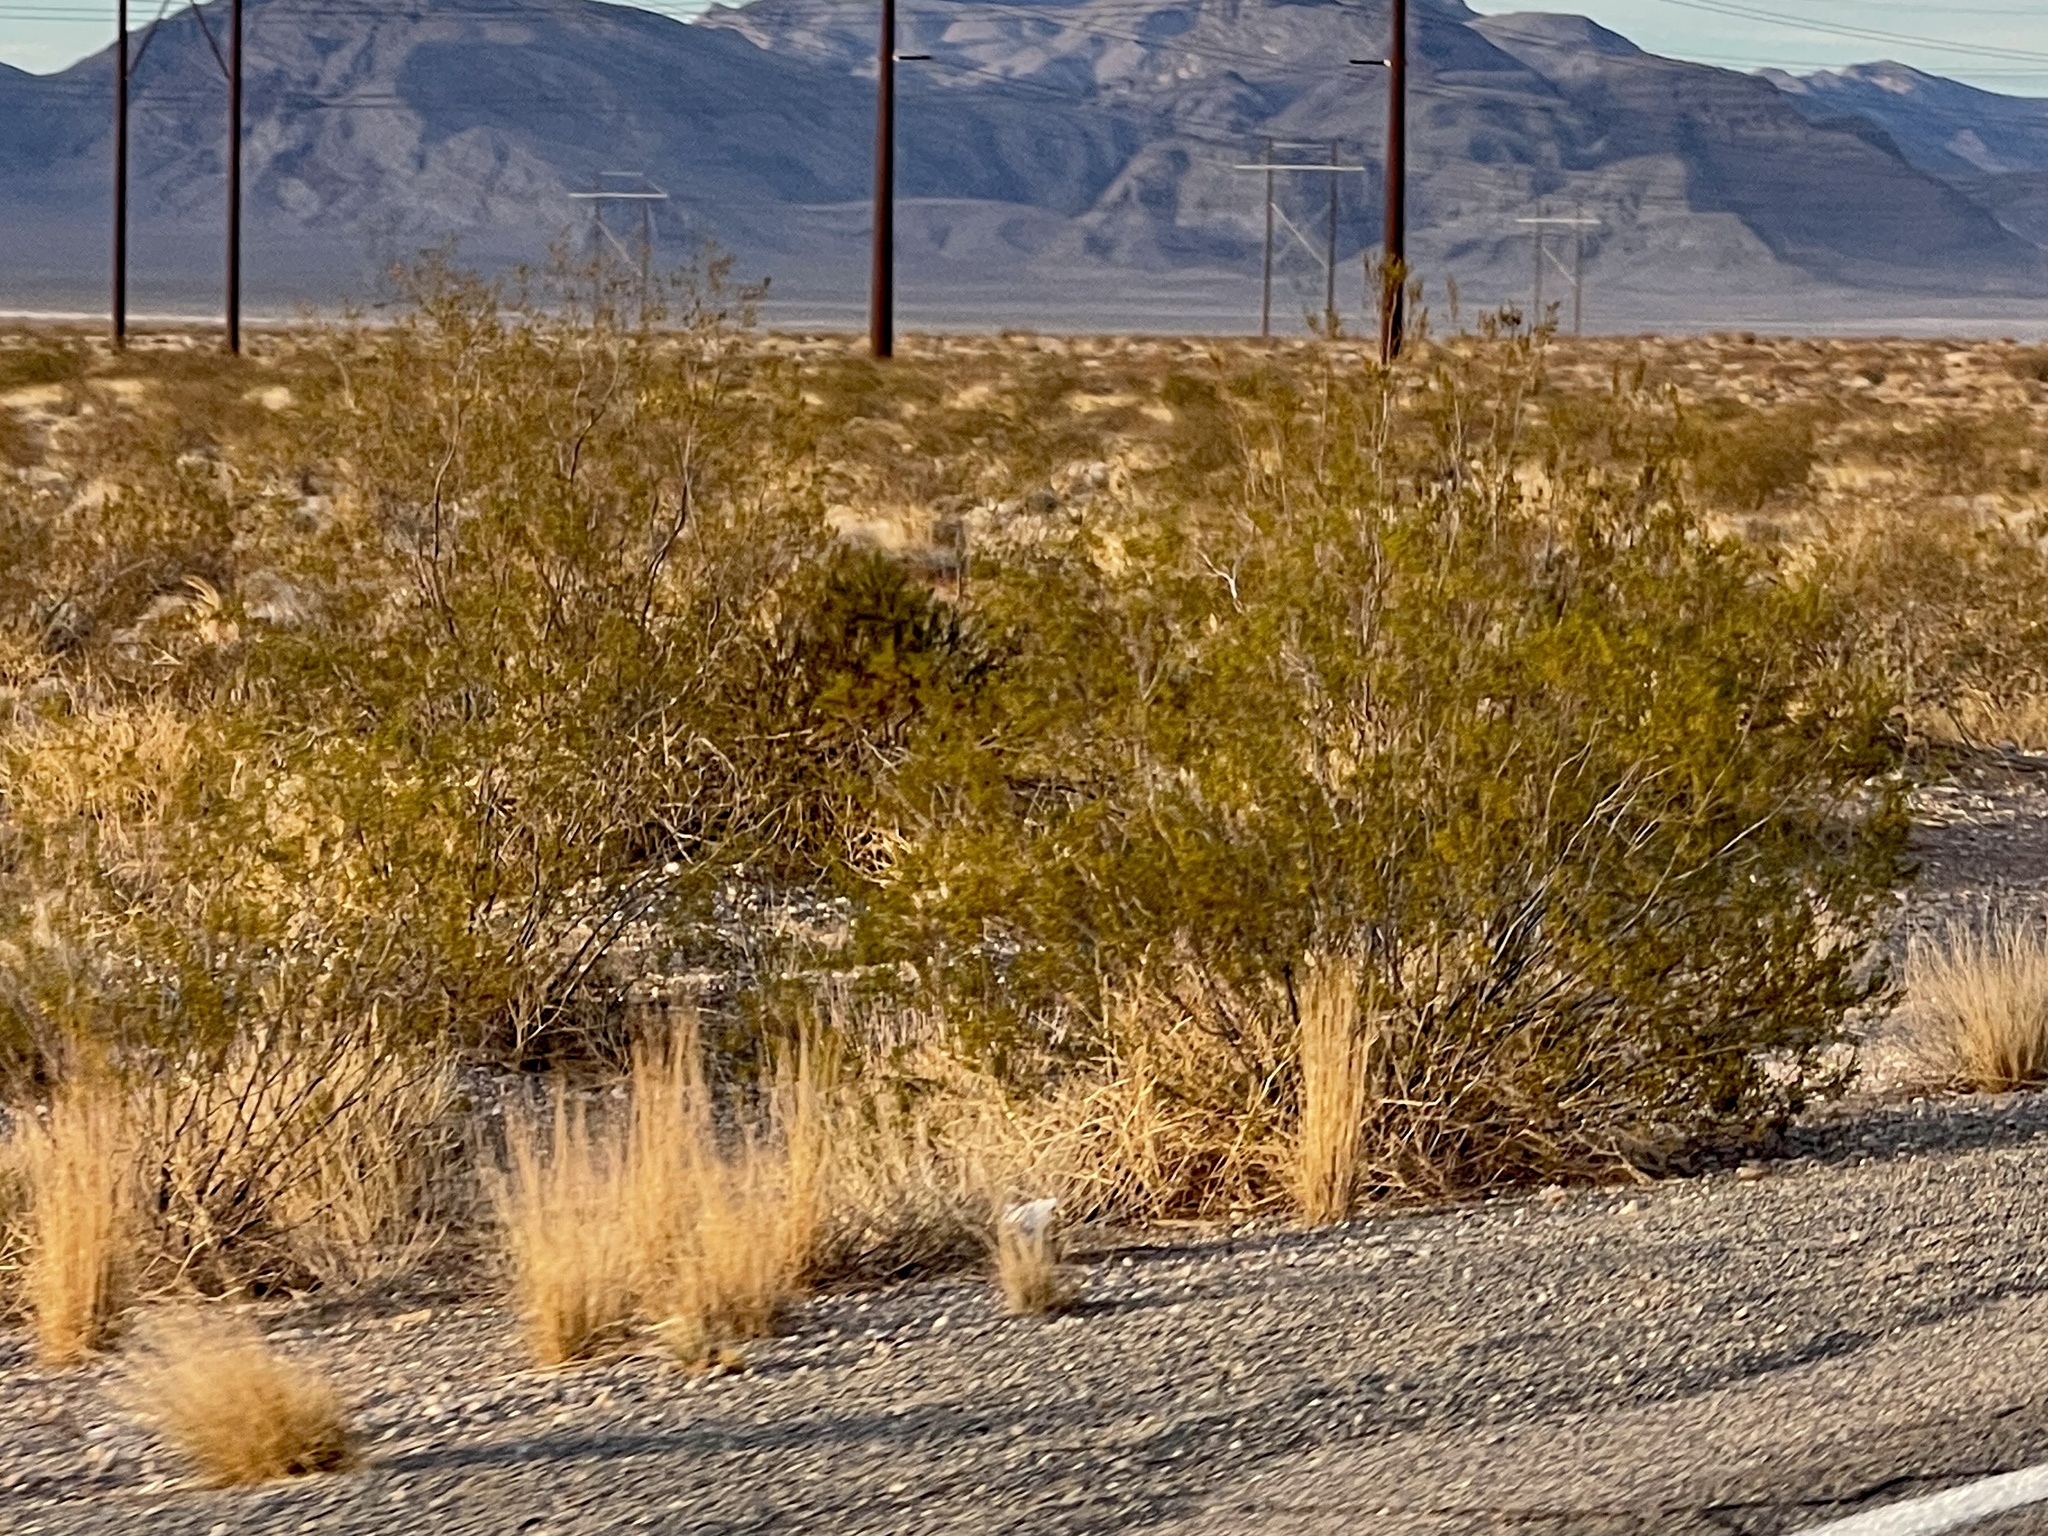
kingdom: Plantae
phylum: Tracheophyta
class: Magnoliopsida
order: Zygophyllales
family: Zygophyllaceae
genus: Larrea
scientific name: Larrea tridentata
